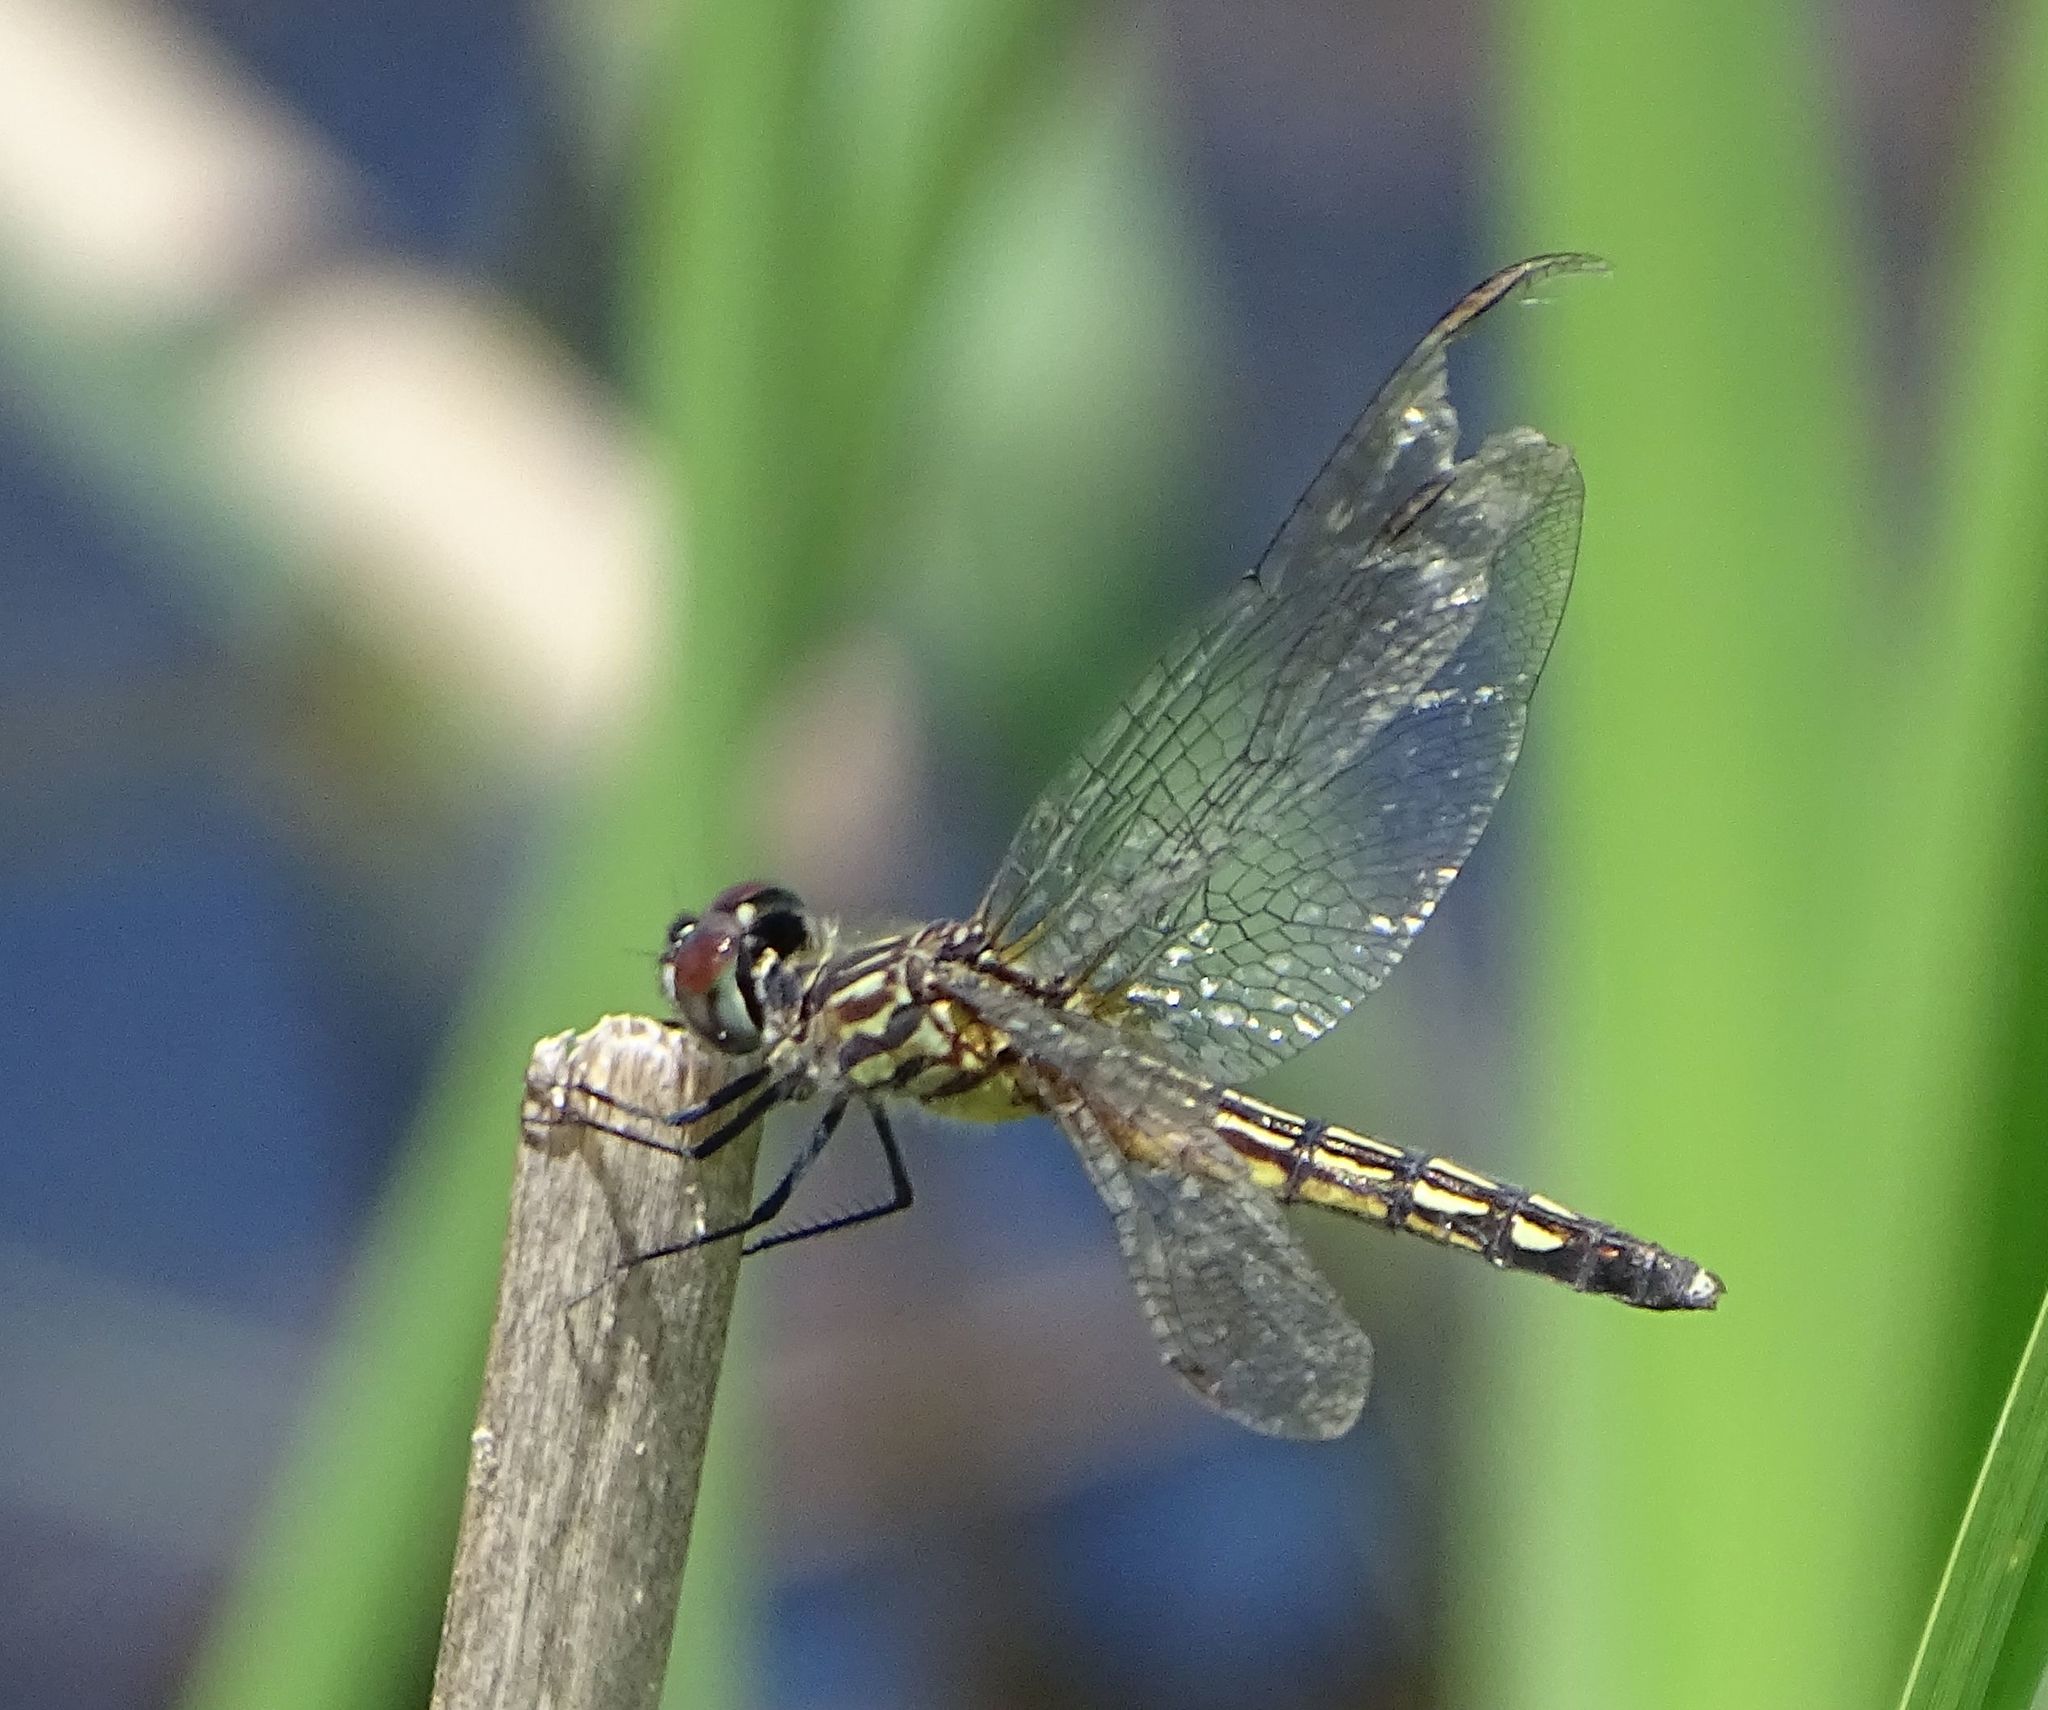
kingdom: Animalia
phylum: Arthropoda
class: Insecta
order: Odonata
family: Libellulidae
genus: Pachydiplax
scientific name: Pachydiplax longipennis
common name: Blue dasher
